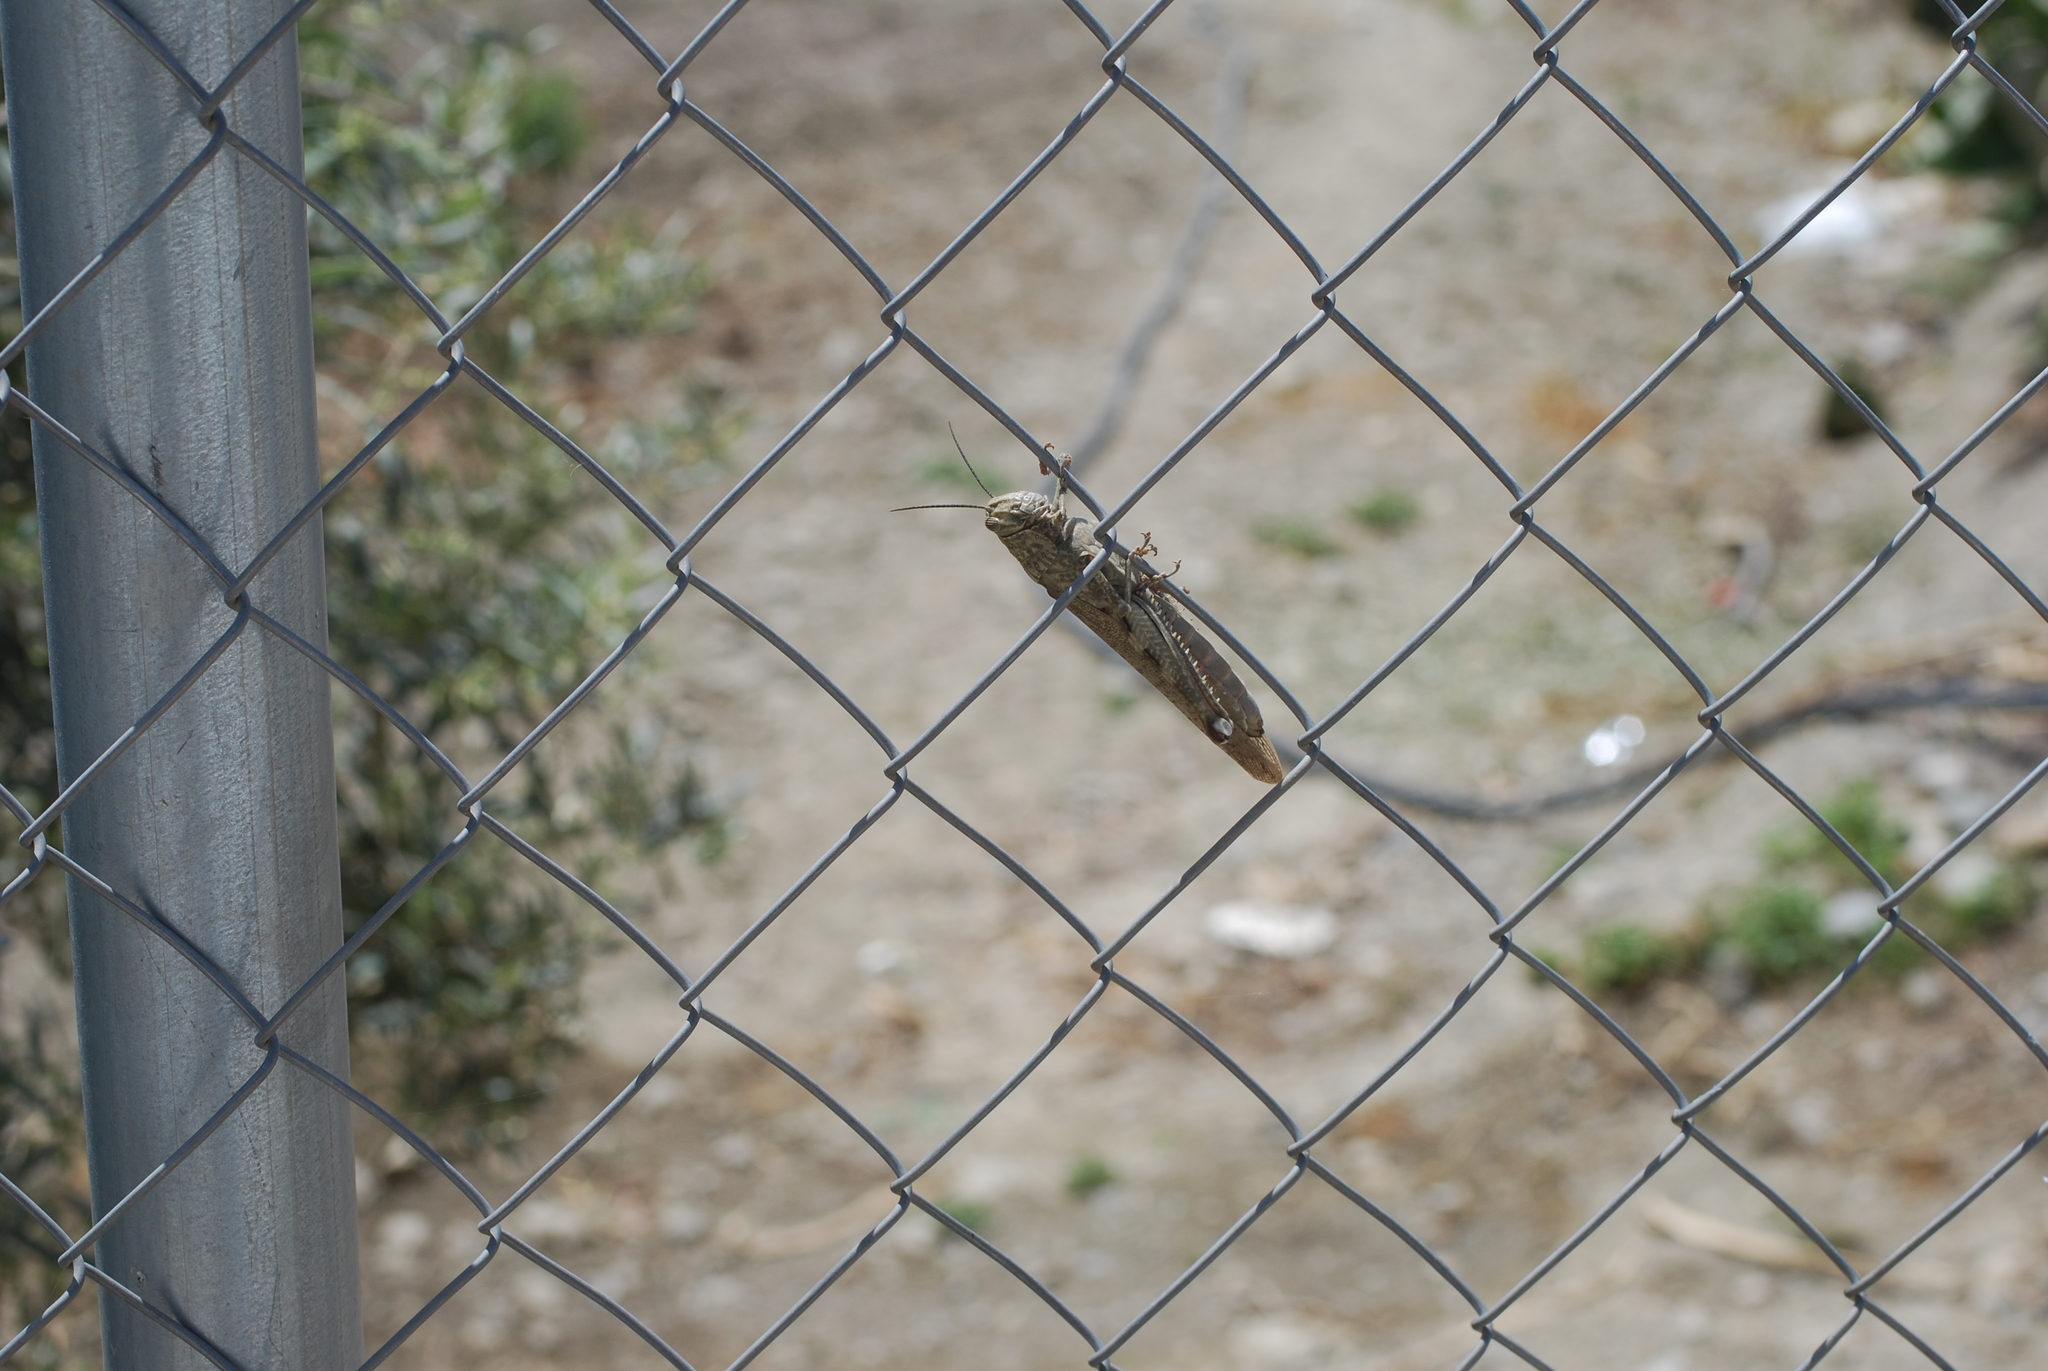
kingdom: Animalia
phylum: Arthropoda
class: Insecta
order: Orthoptera
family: Acrididae
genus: Anacridium
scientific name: Anacridium aegyptium
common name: Egyptian grasshopper
